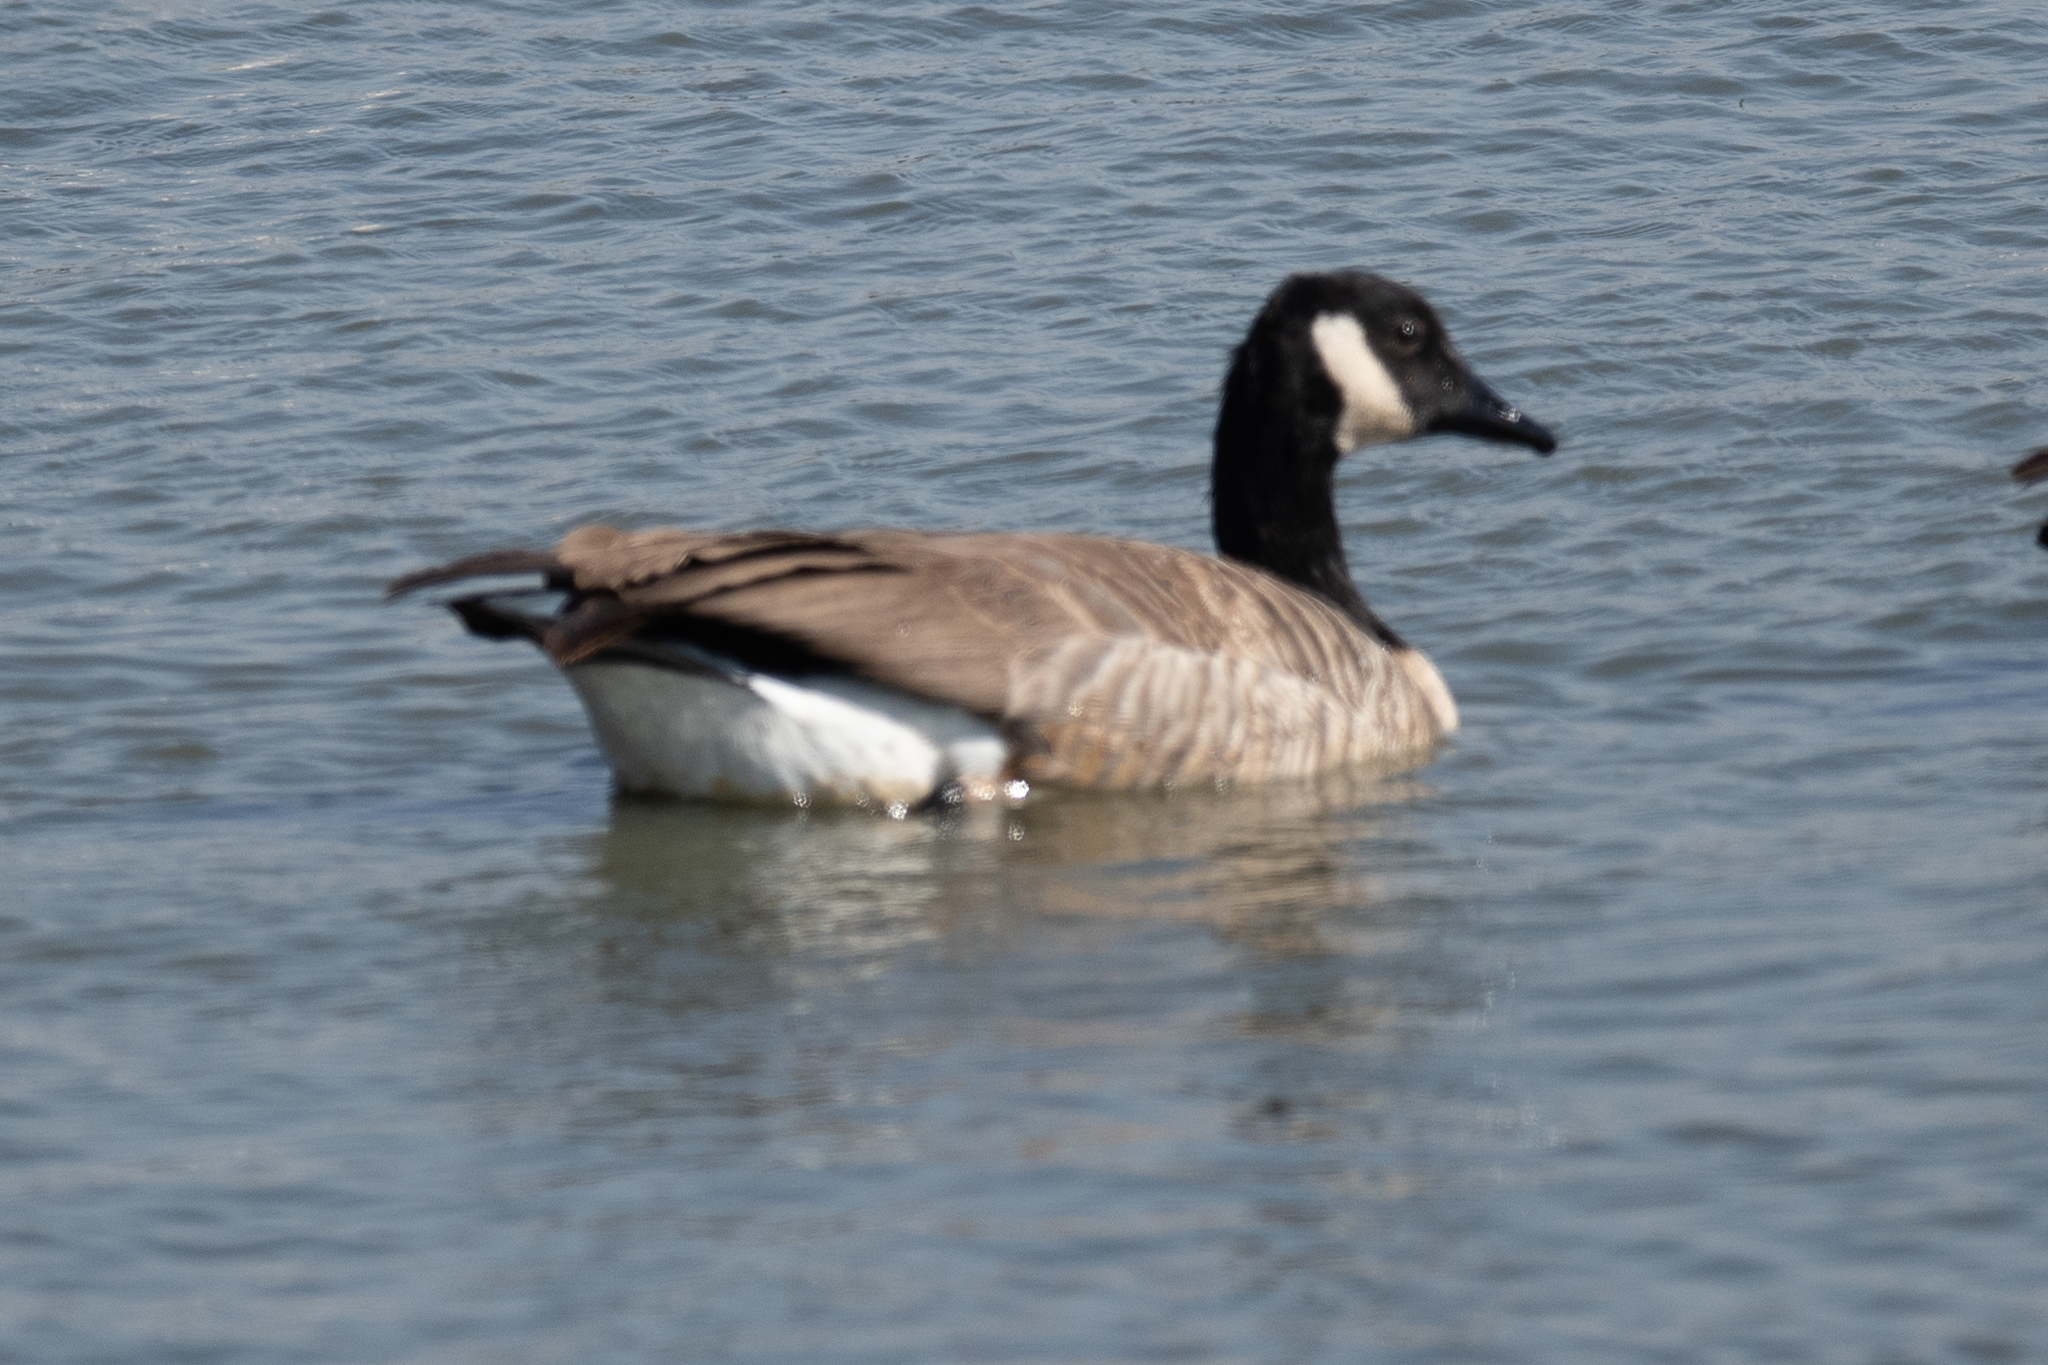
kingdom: Animalia
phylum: Chordata
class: Aves
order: Anseriformes
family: Anatidae
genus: Branta
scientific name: Branta canadensis
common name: Canada goose
